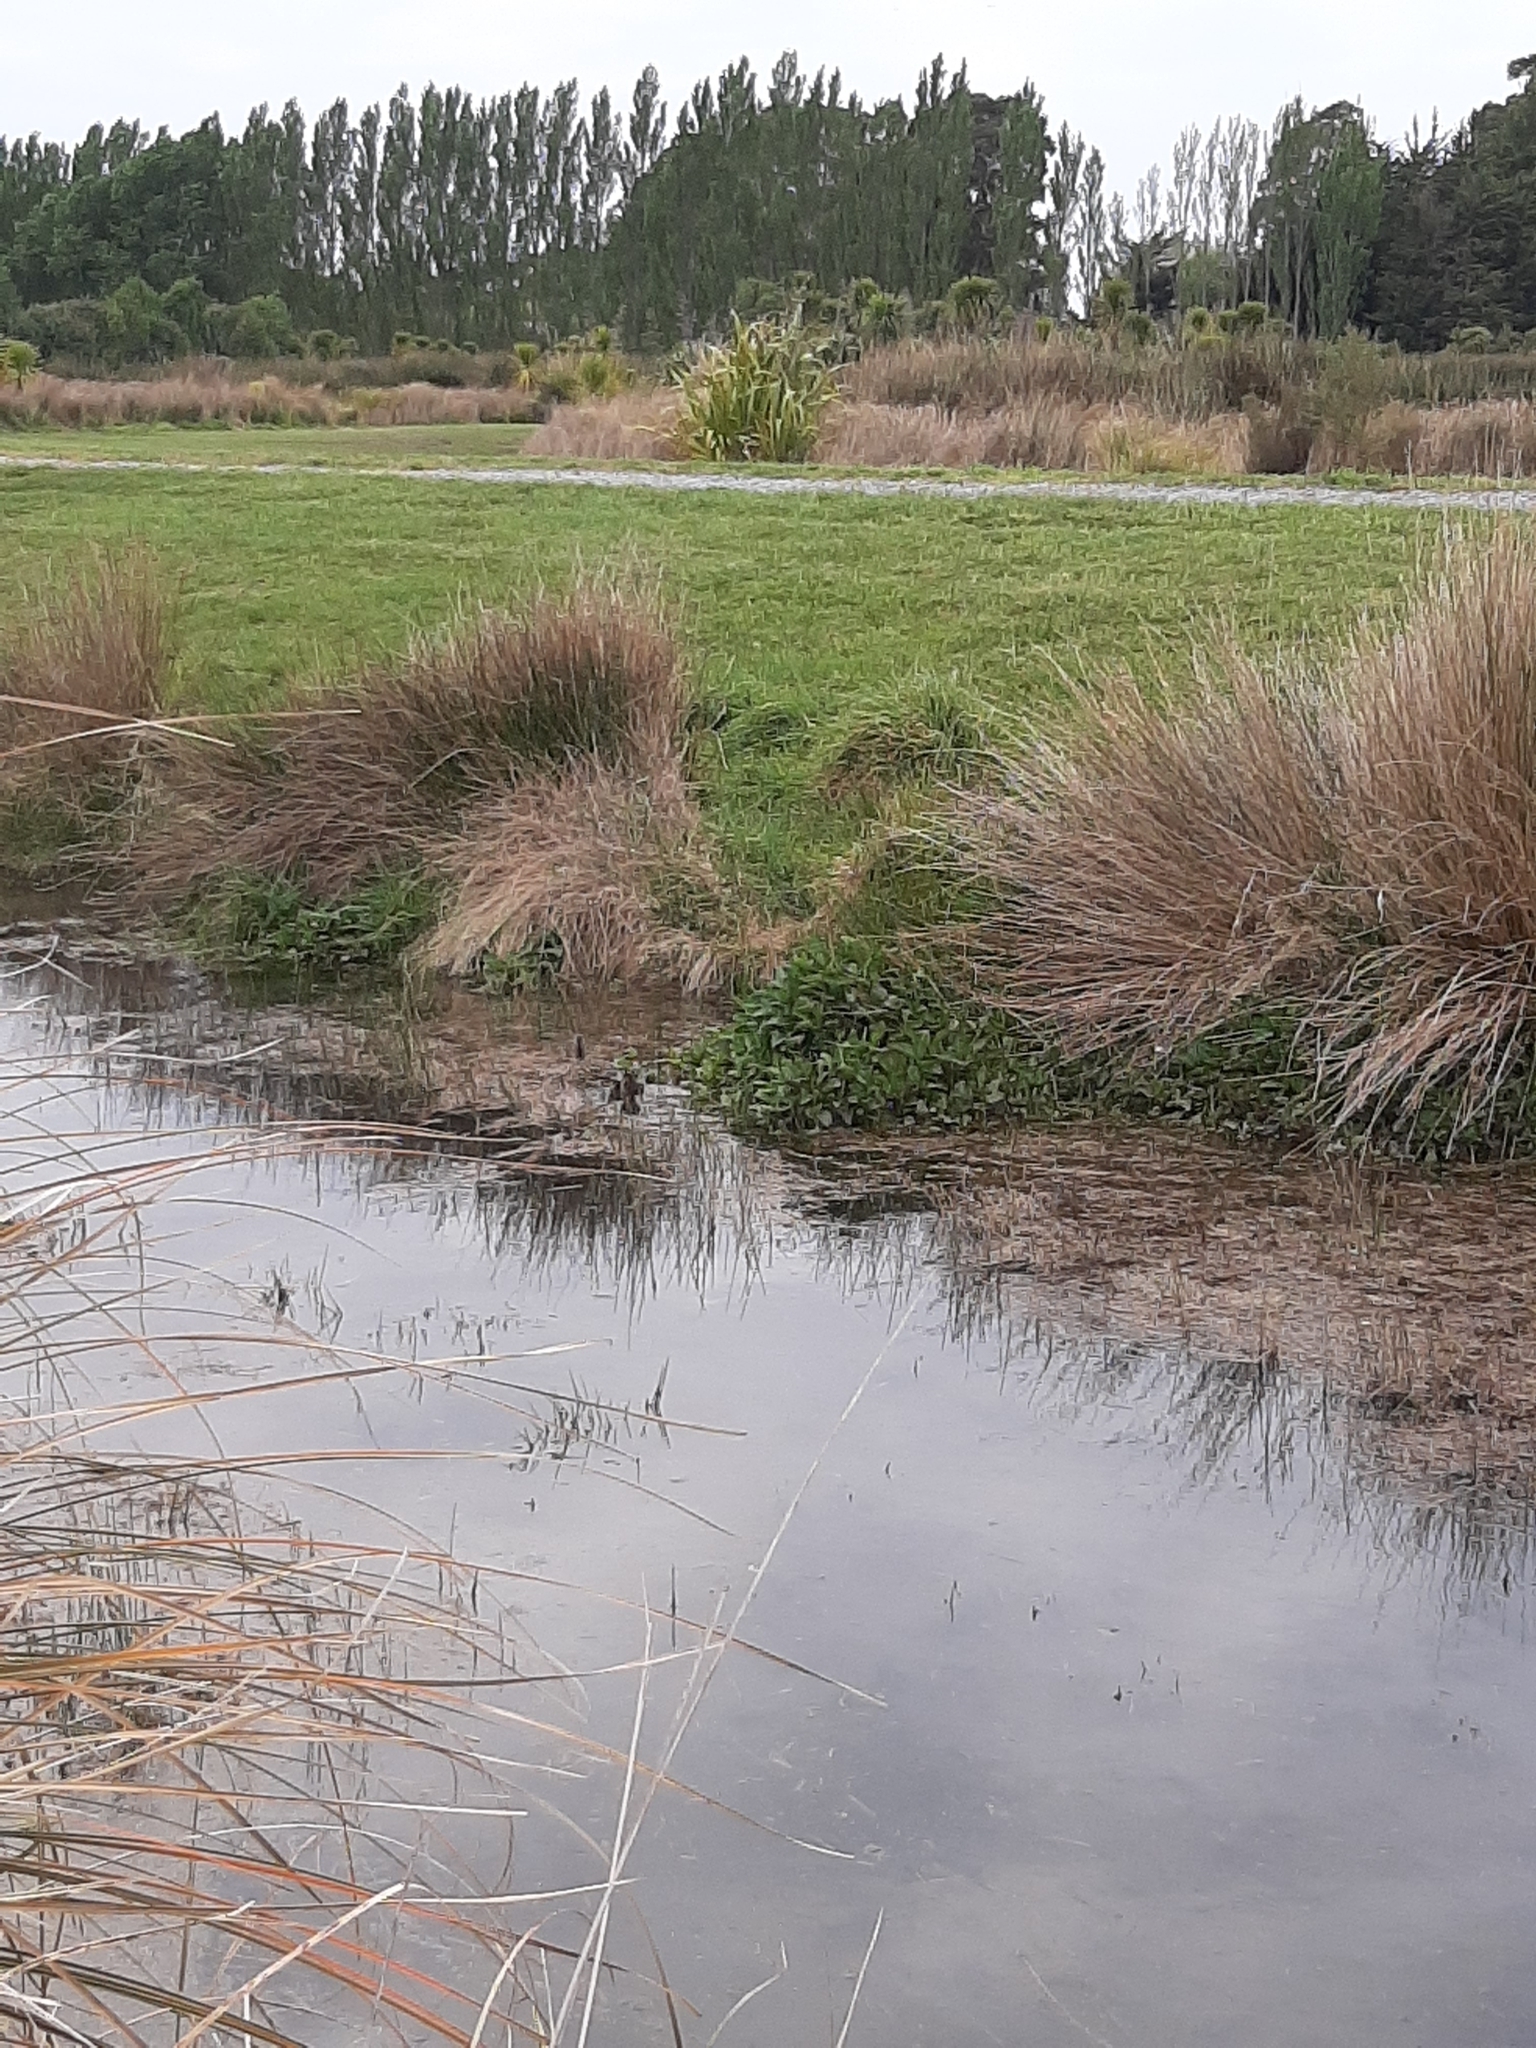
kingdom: Animalia
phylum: Chordata
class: Aves
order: Anseriformes
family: Anatidae
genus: Anas
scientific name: Anas platyrhynchos
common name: Mallard
